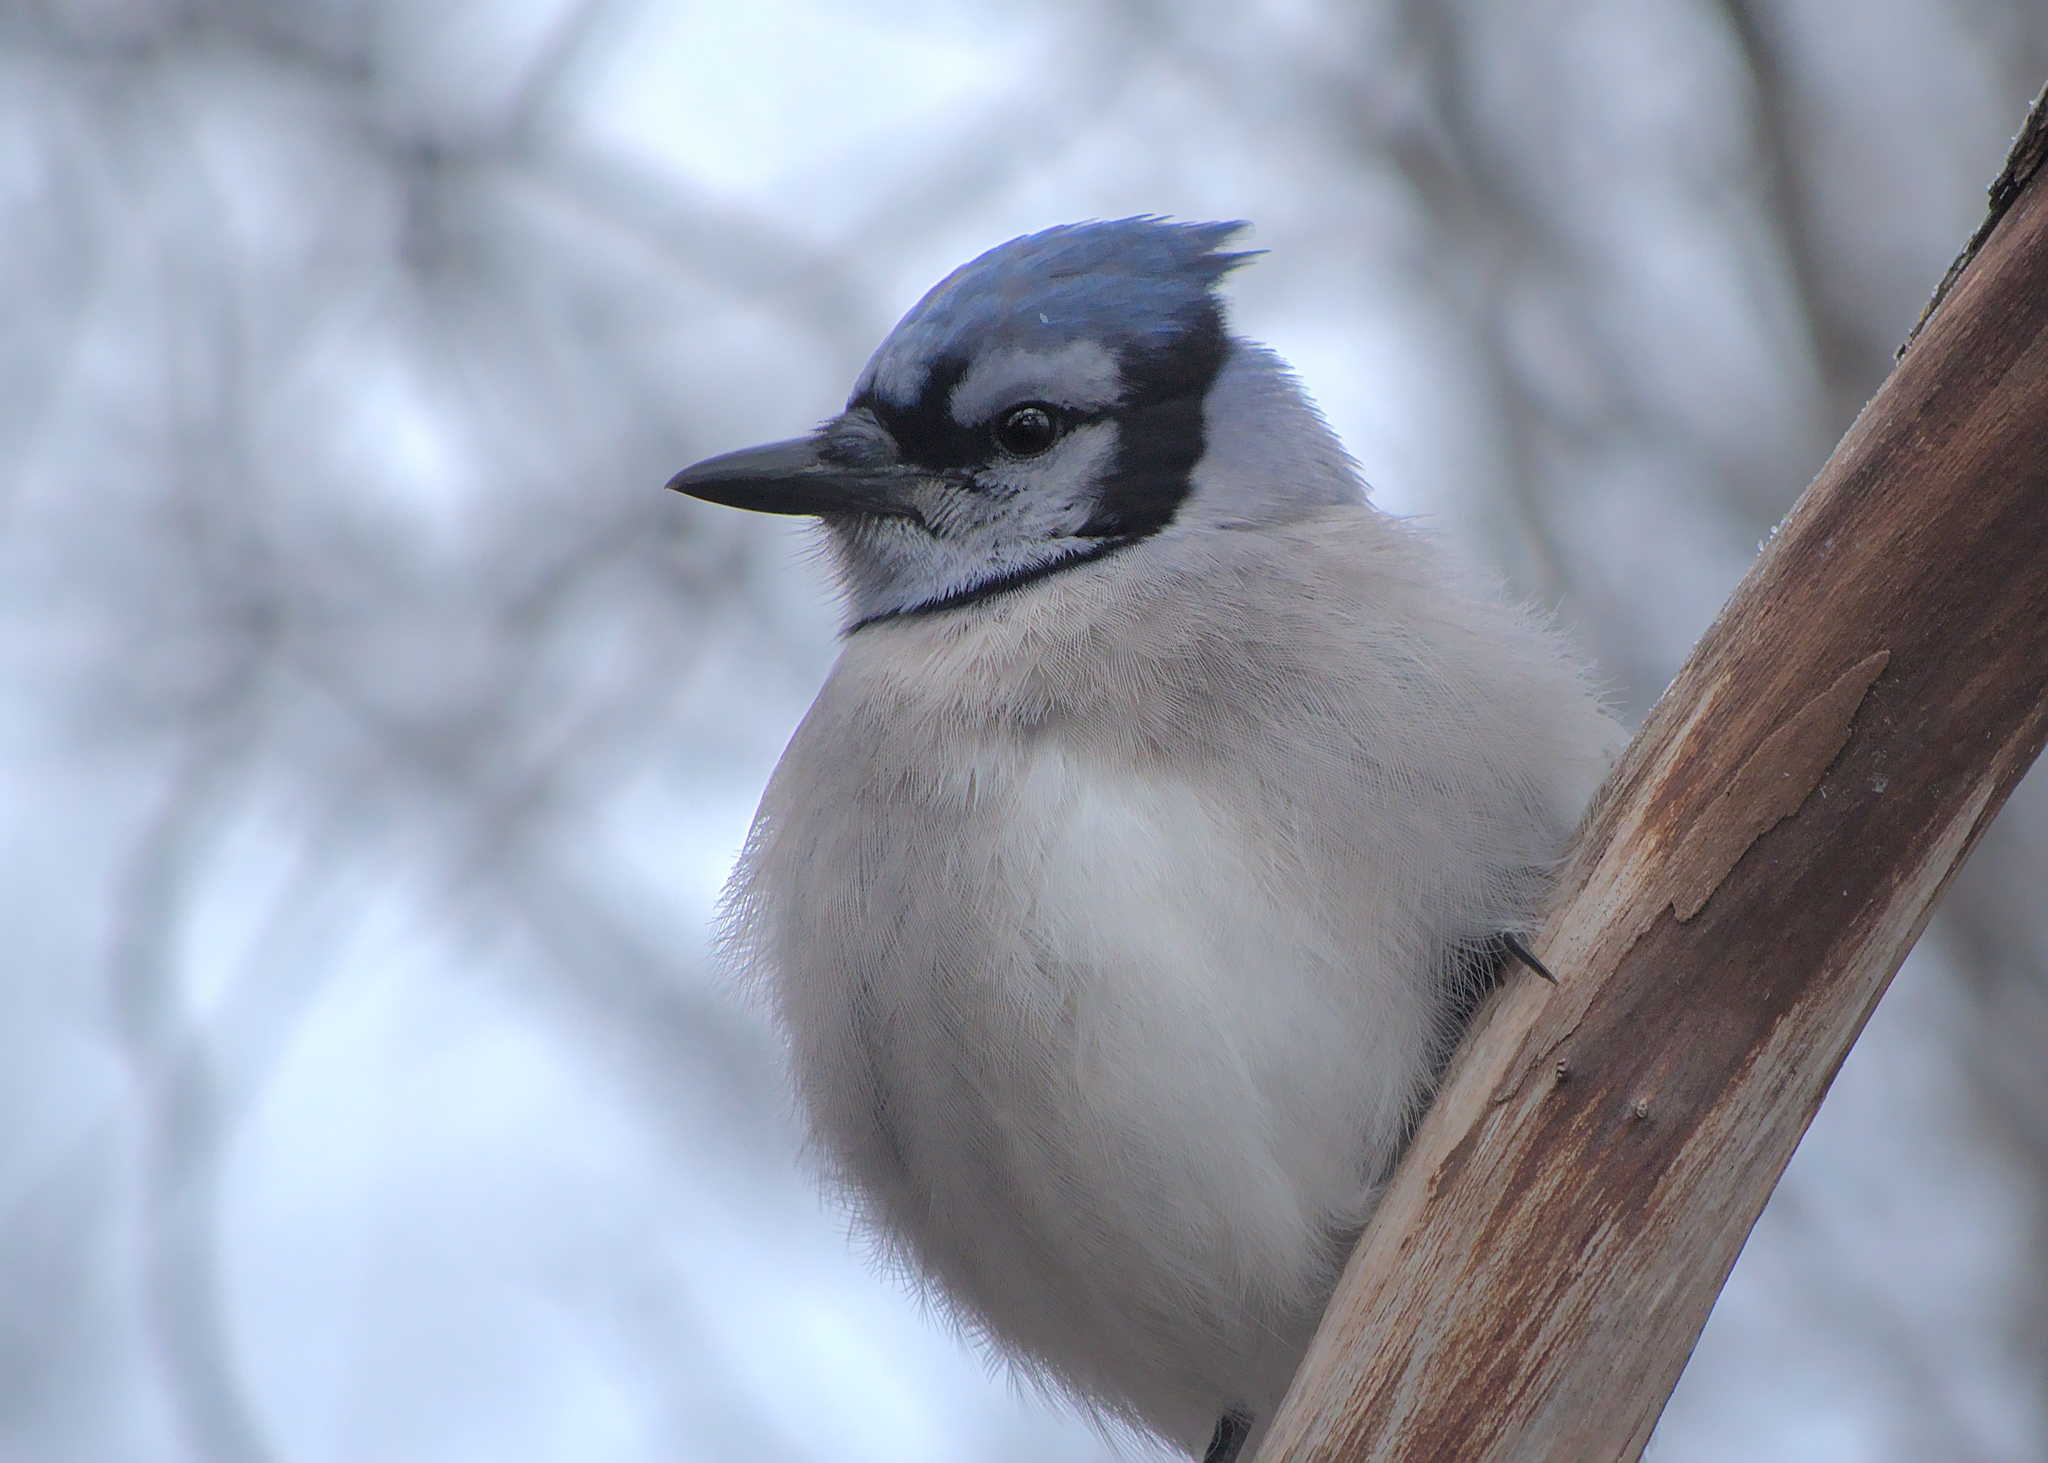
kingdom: Animalia
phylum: Chordata
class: Aves
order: Passeriformes
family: Corvidae
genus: Cyanocitta
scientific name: Cyanocitta cristata
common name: Blue jay
